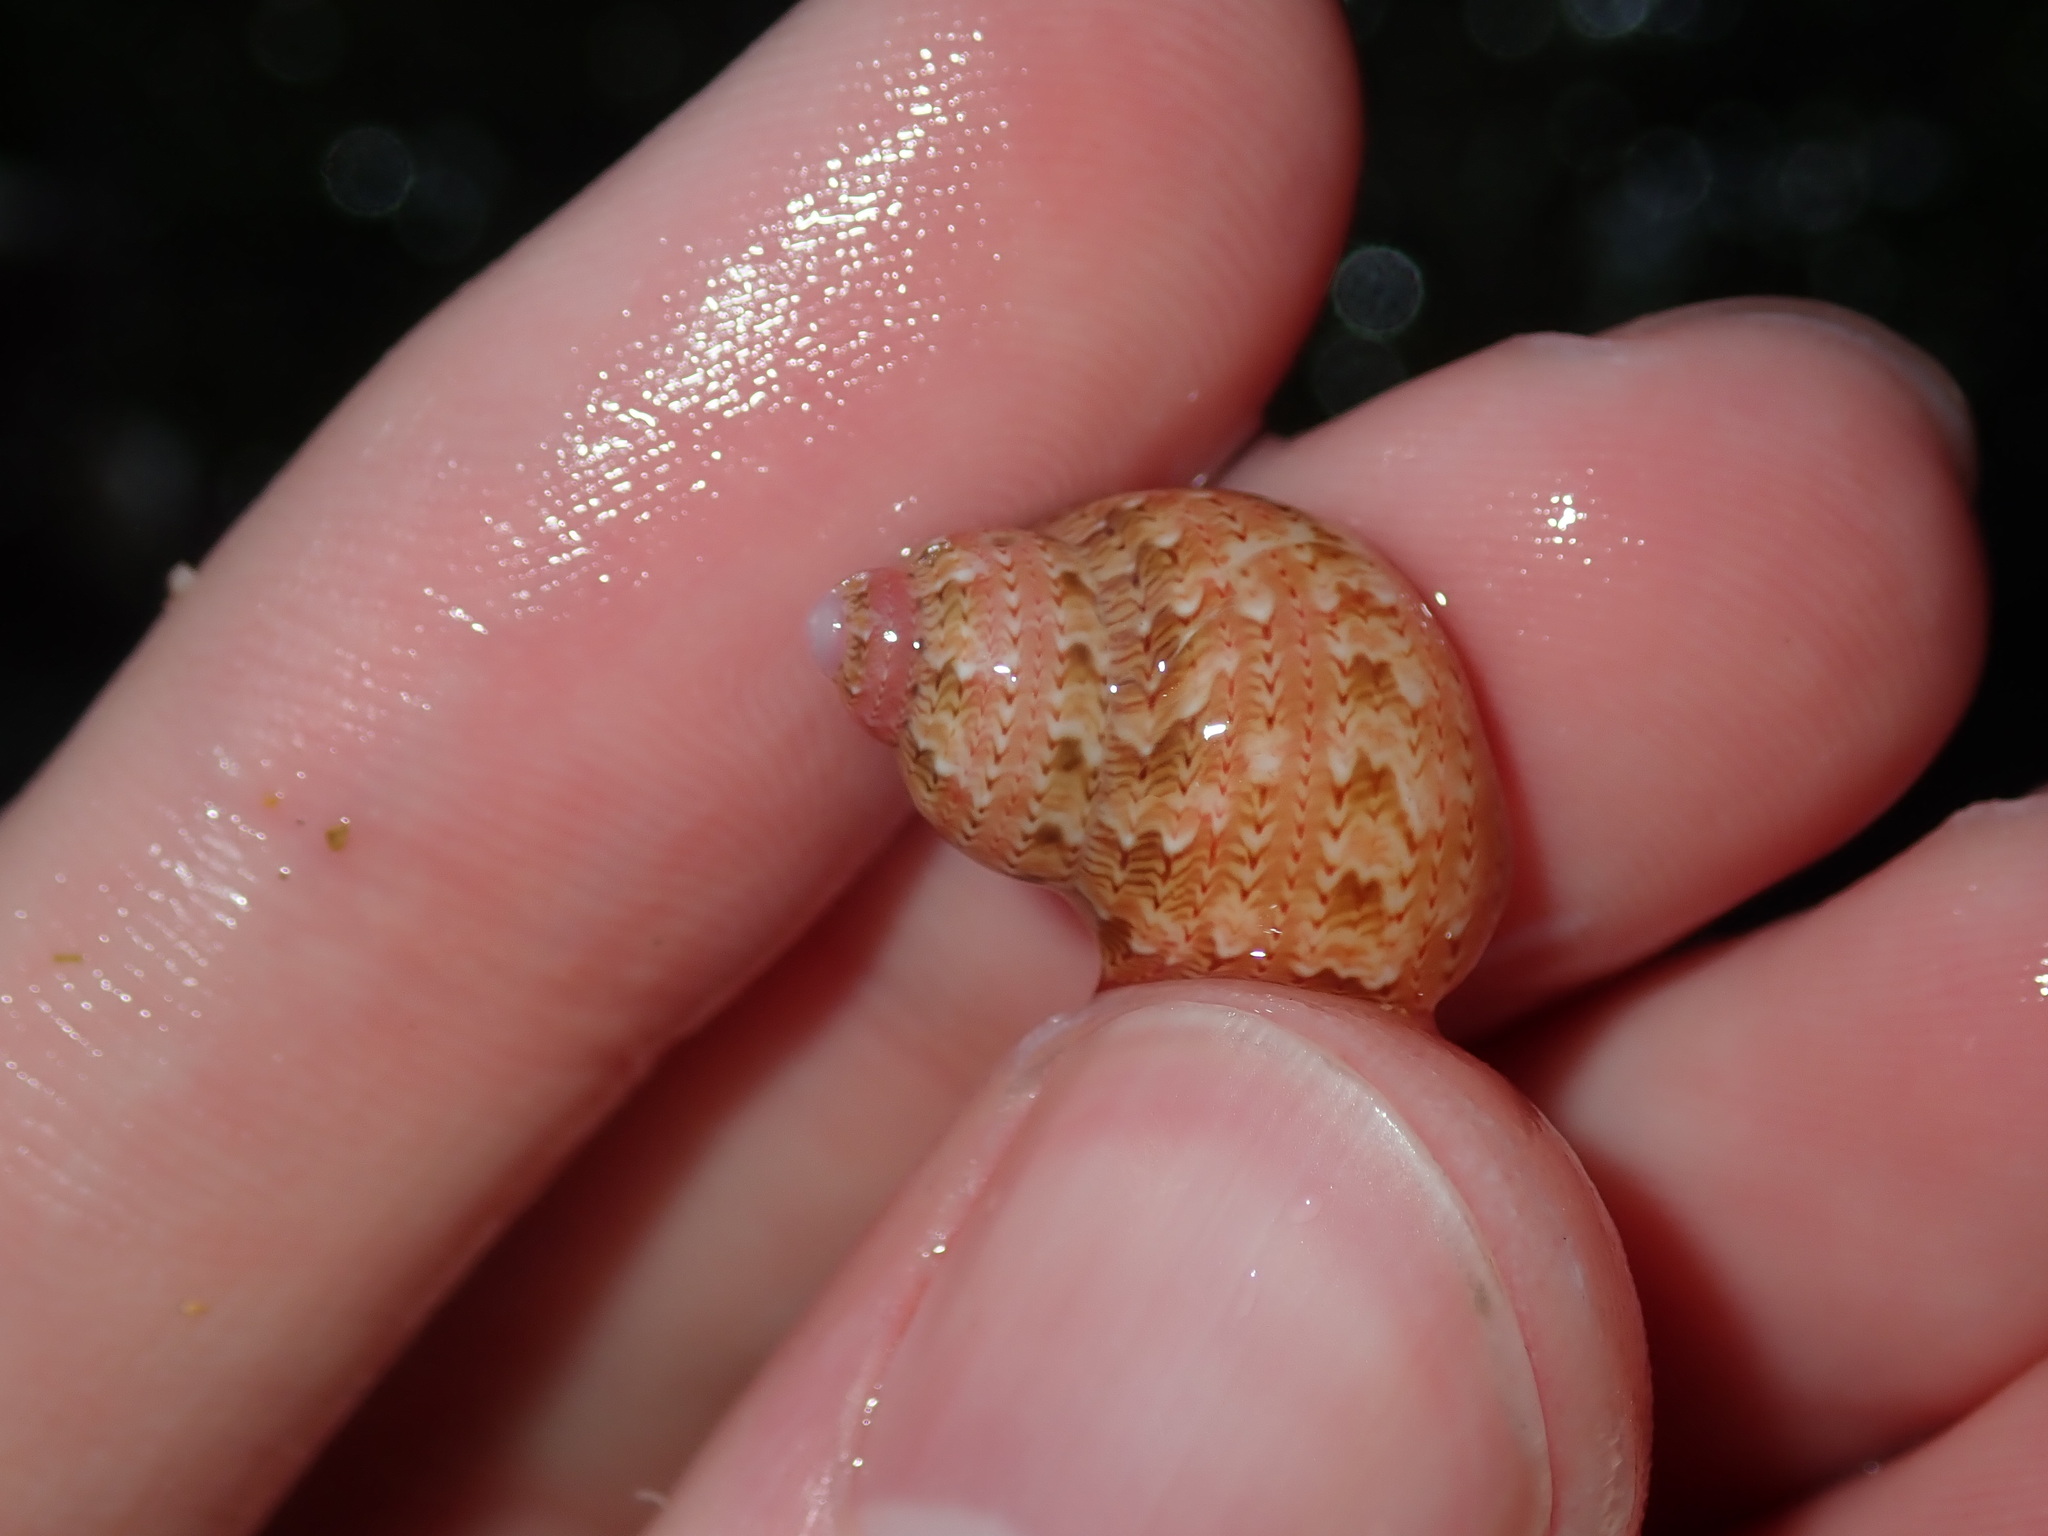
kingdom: Animalia
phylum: Mollusca
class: Gastropoda
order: Trochida
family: Phasianellidae
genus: Phasianella
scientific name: Phasianella ventricosa
